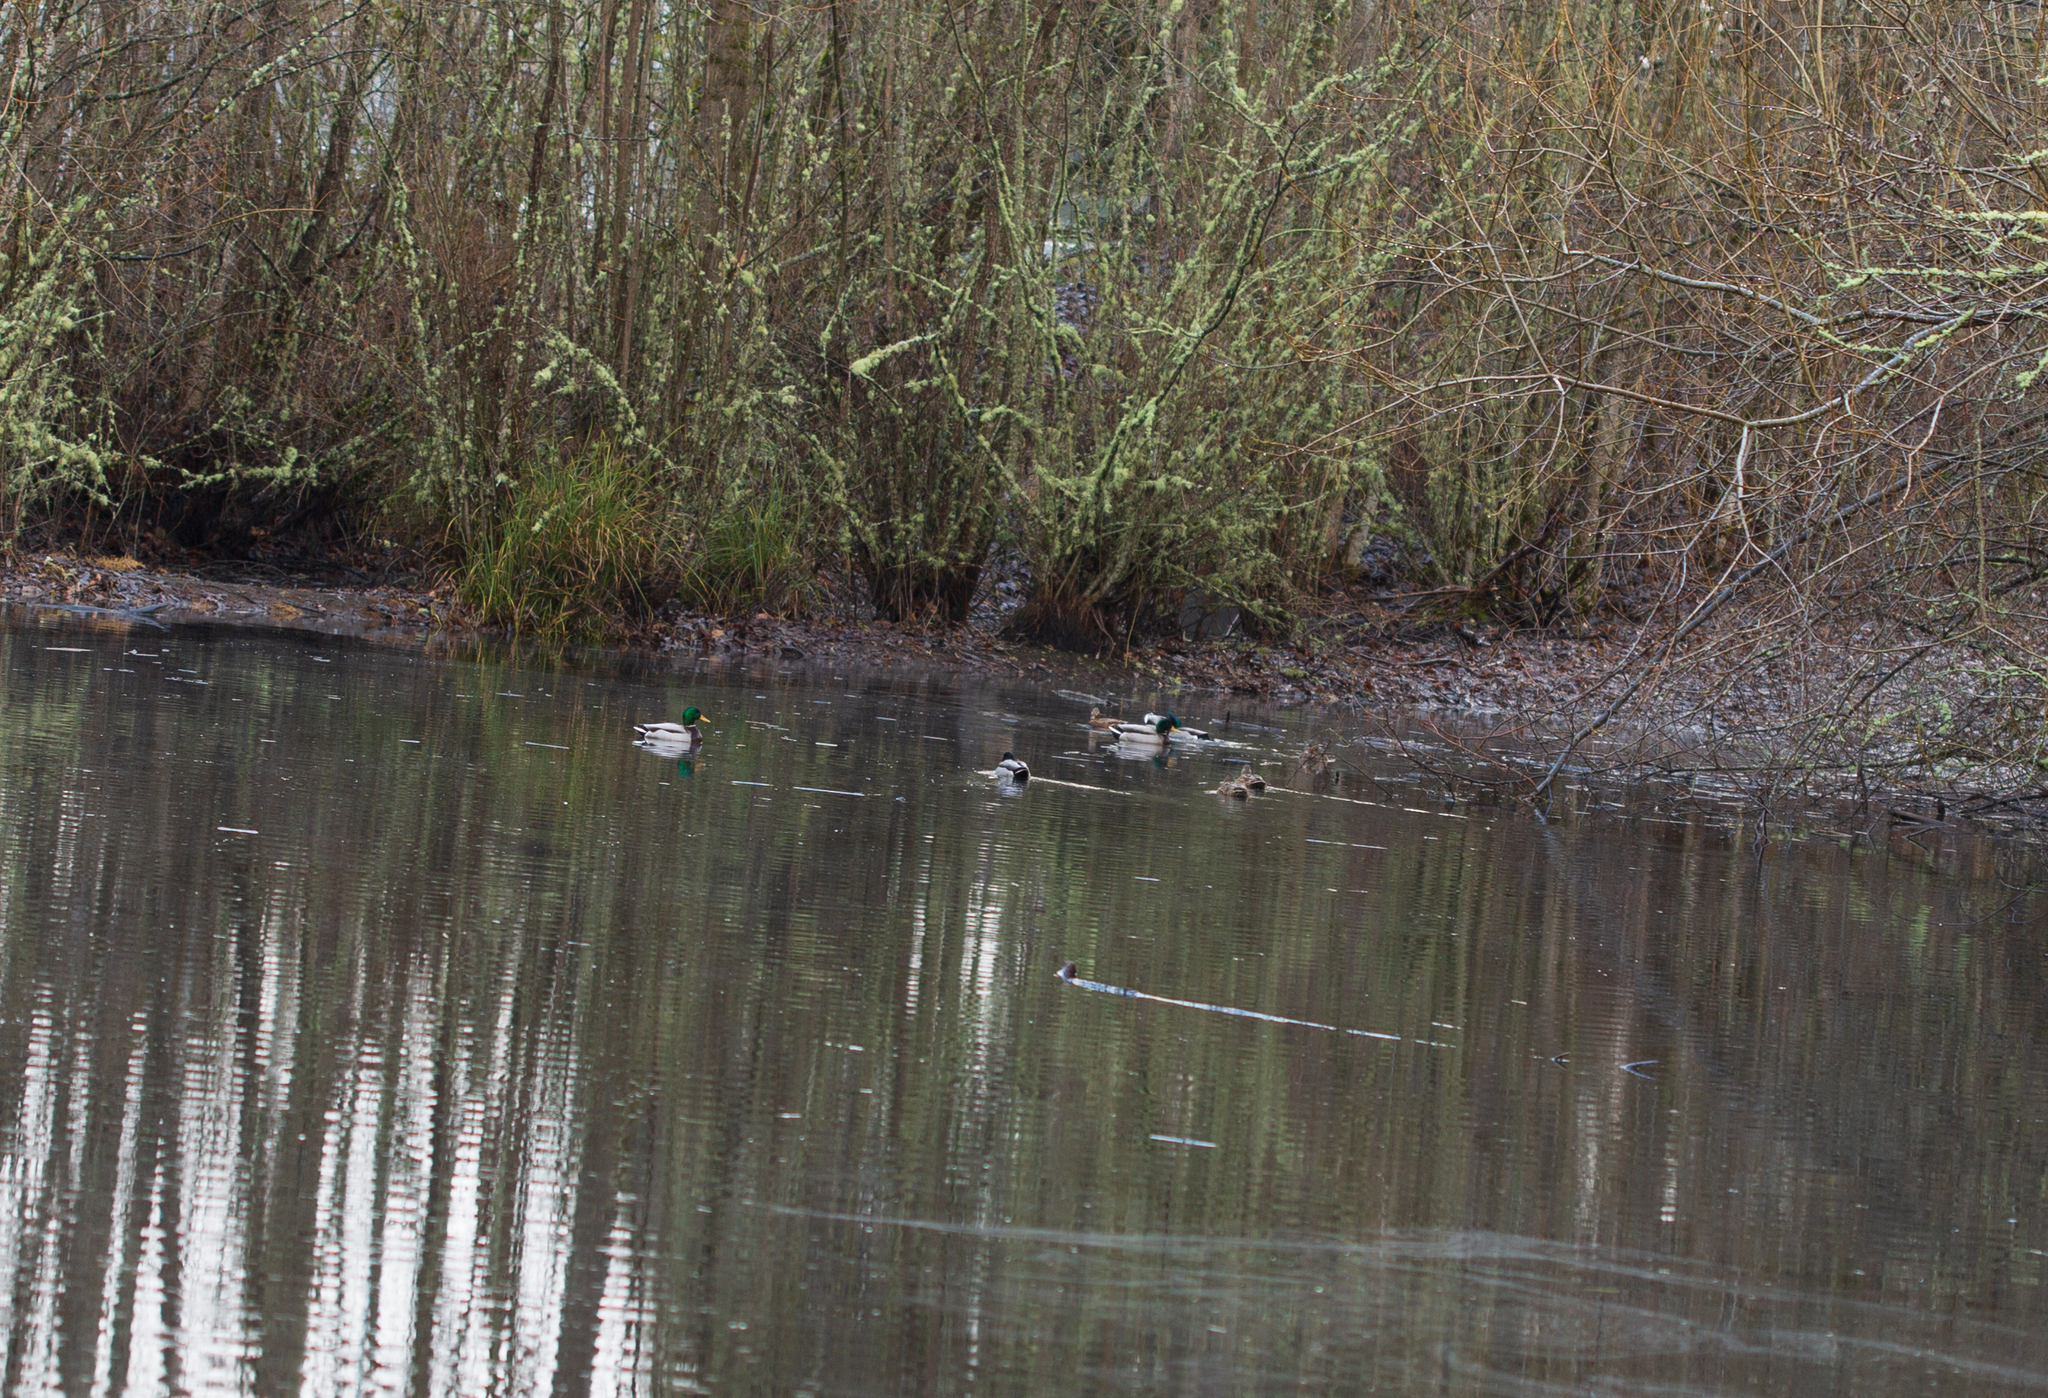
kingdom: Animalia
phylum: Chordata
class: Aves
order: Anseriformes
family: Anatidae
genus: Anas
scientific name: Anas platyrhynchos
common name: Mallard
